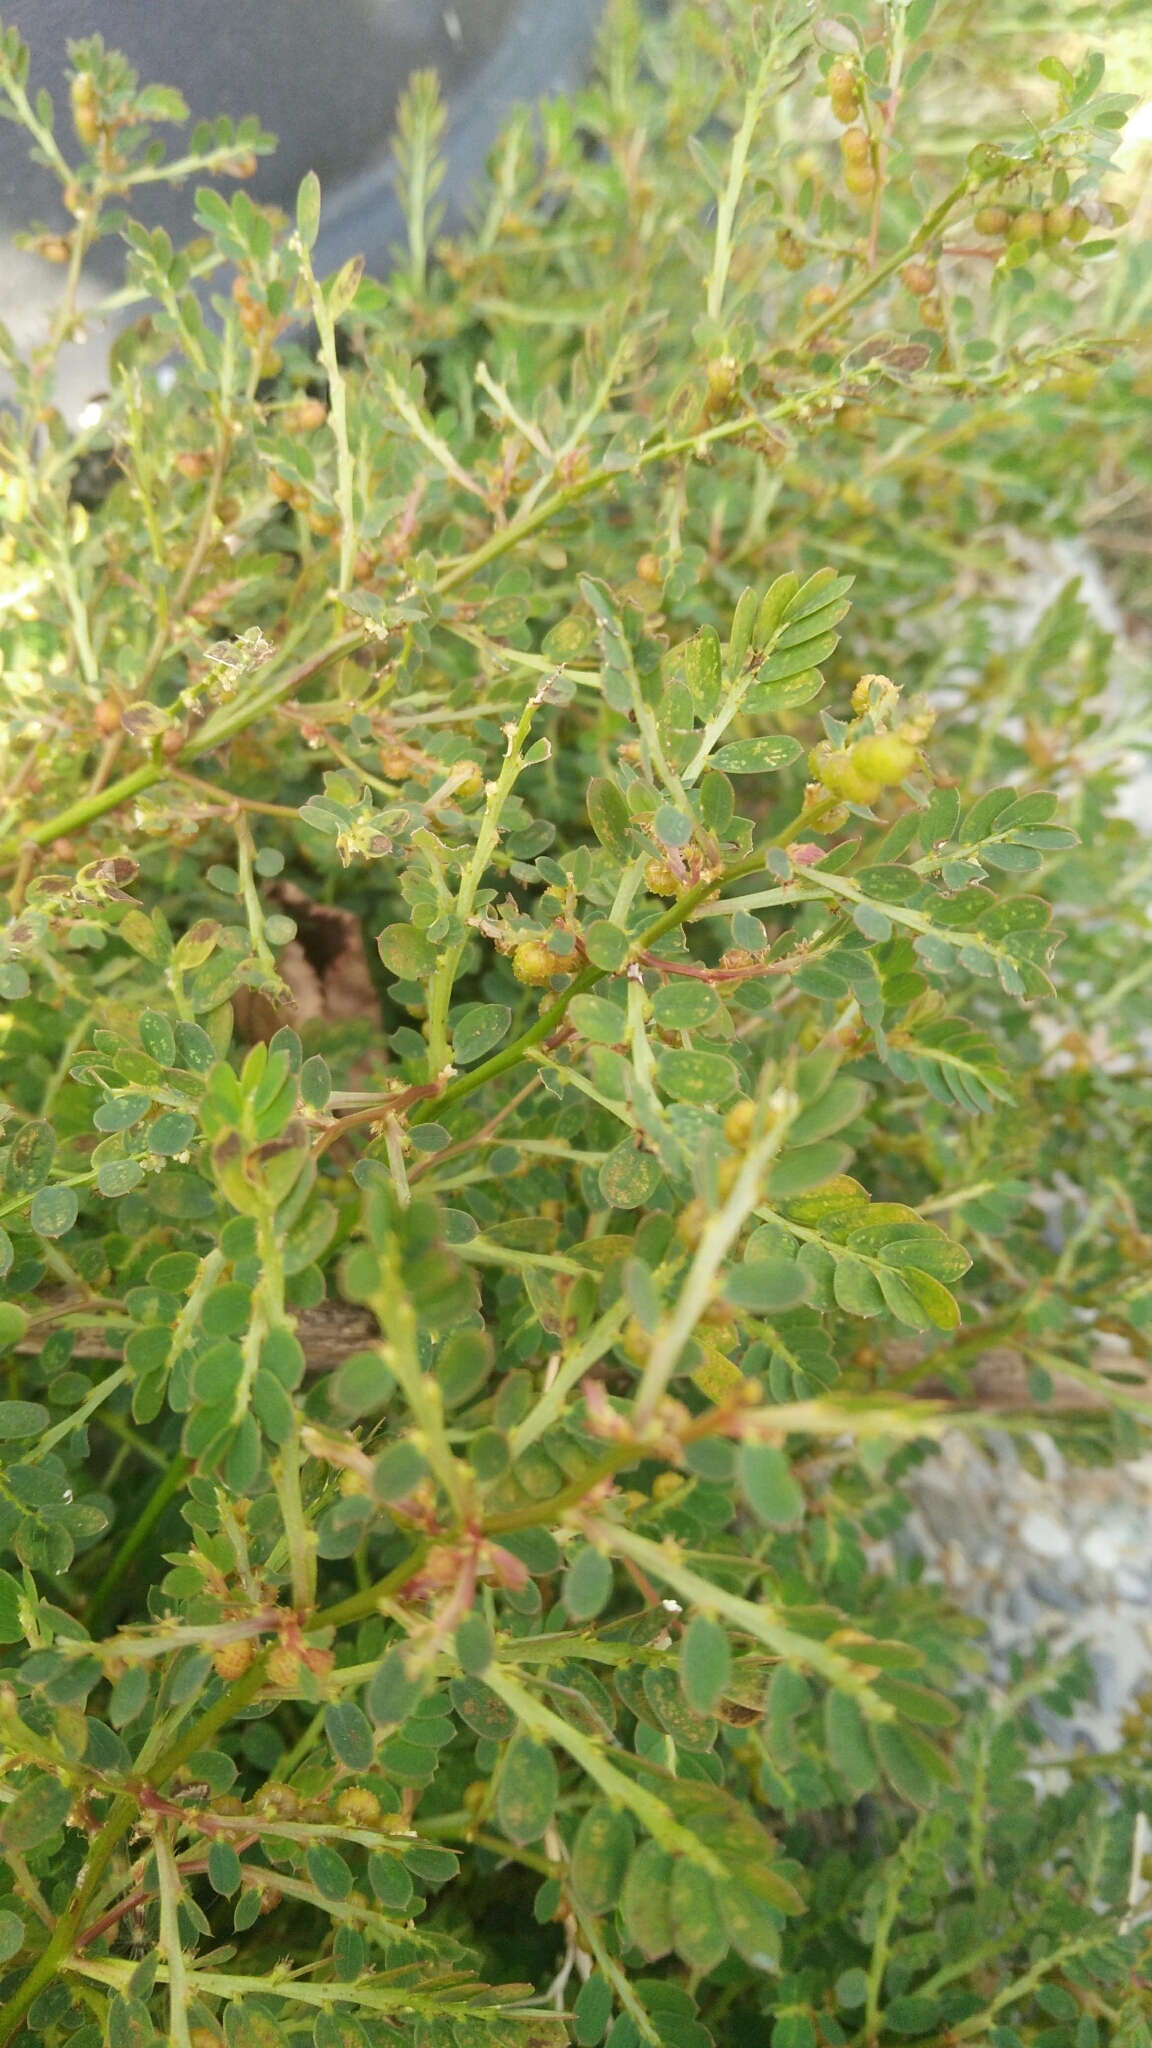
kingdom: Plantae
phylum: Tracheophyta
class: Magnoliopsida
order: Malpighiales
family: Phyllanthaceae
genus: Phyllanthus
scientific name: Phyllanthus urinaria
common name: Chamber bitter
